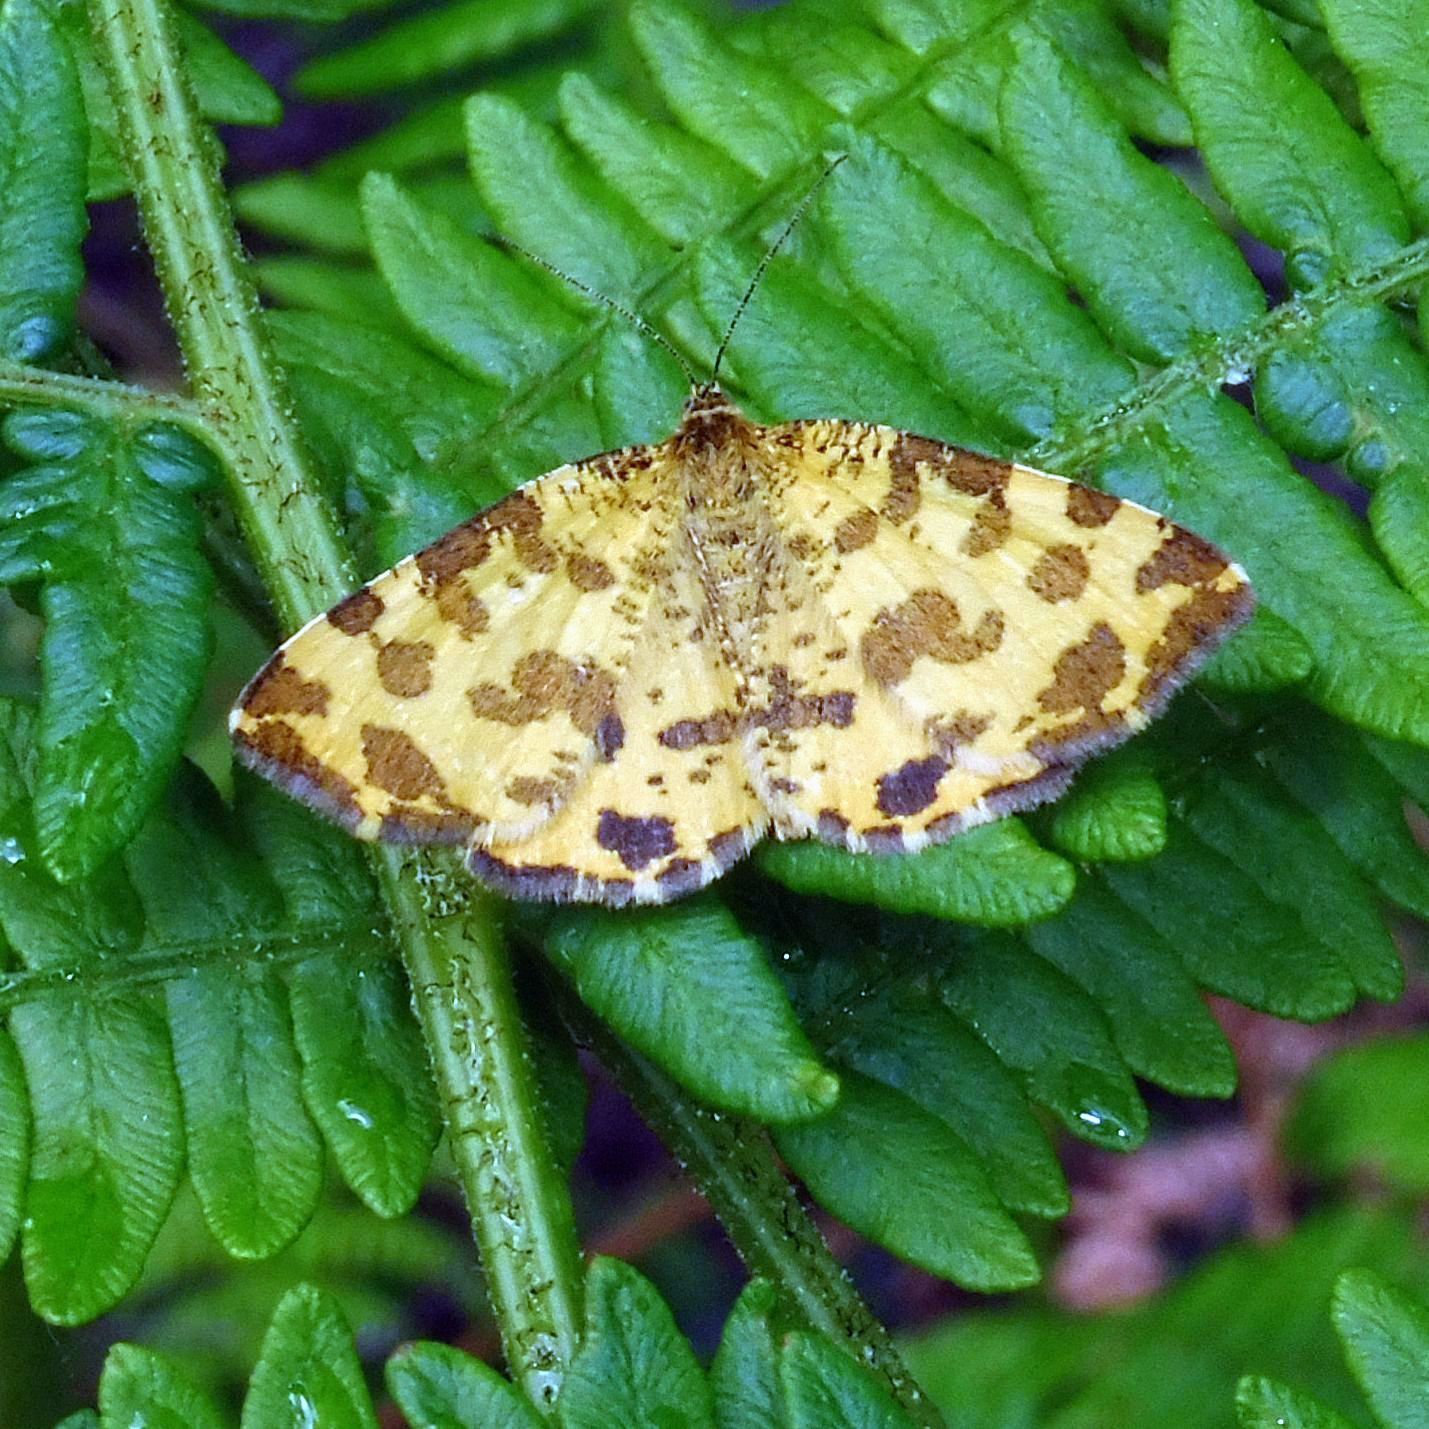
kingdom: Animalia
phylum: Arthropoda
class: Insecta
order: Lepidoptera
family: Geometridae
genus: Pseudopanthera
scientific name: Pseudopanthera macularia
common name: Speckled yellow
